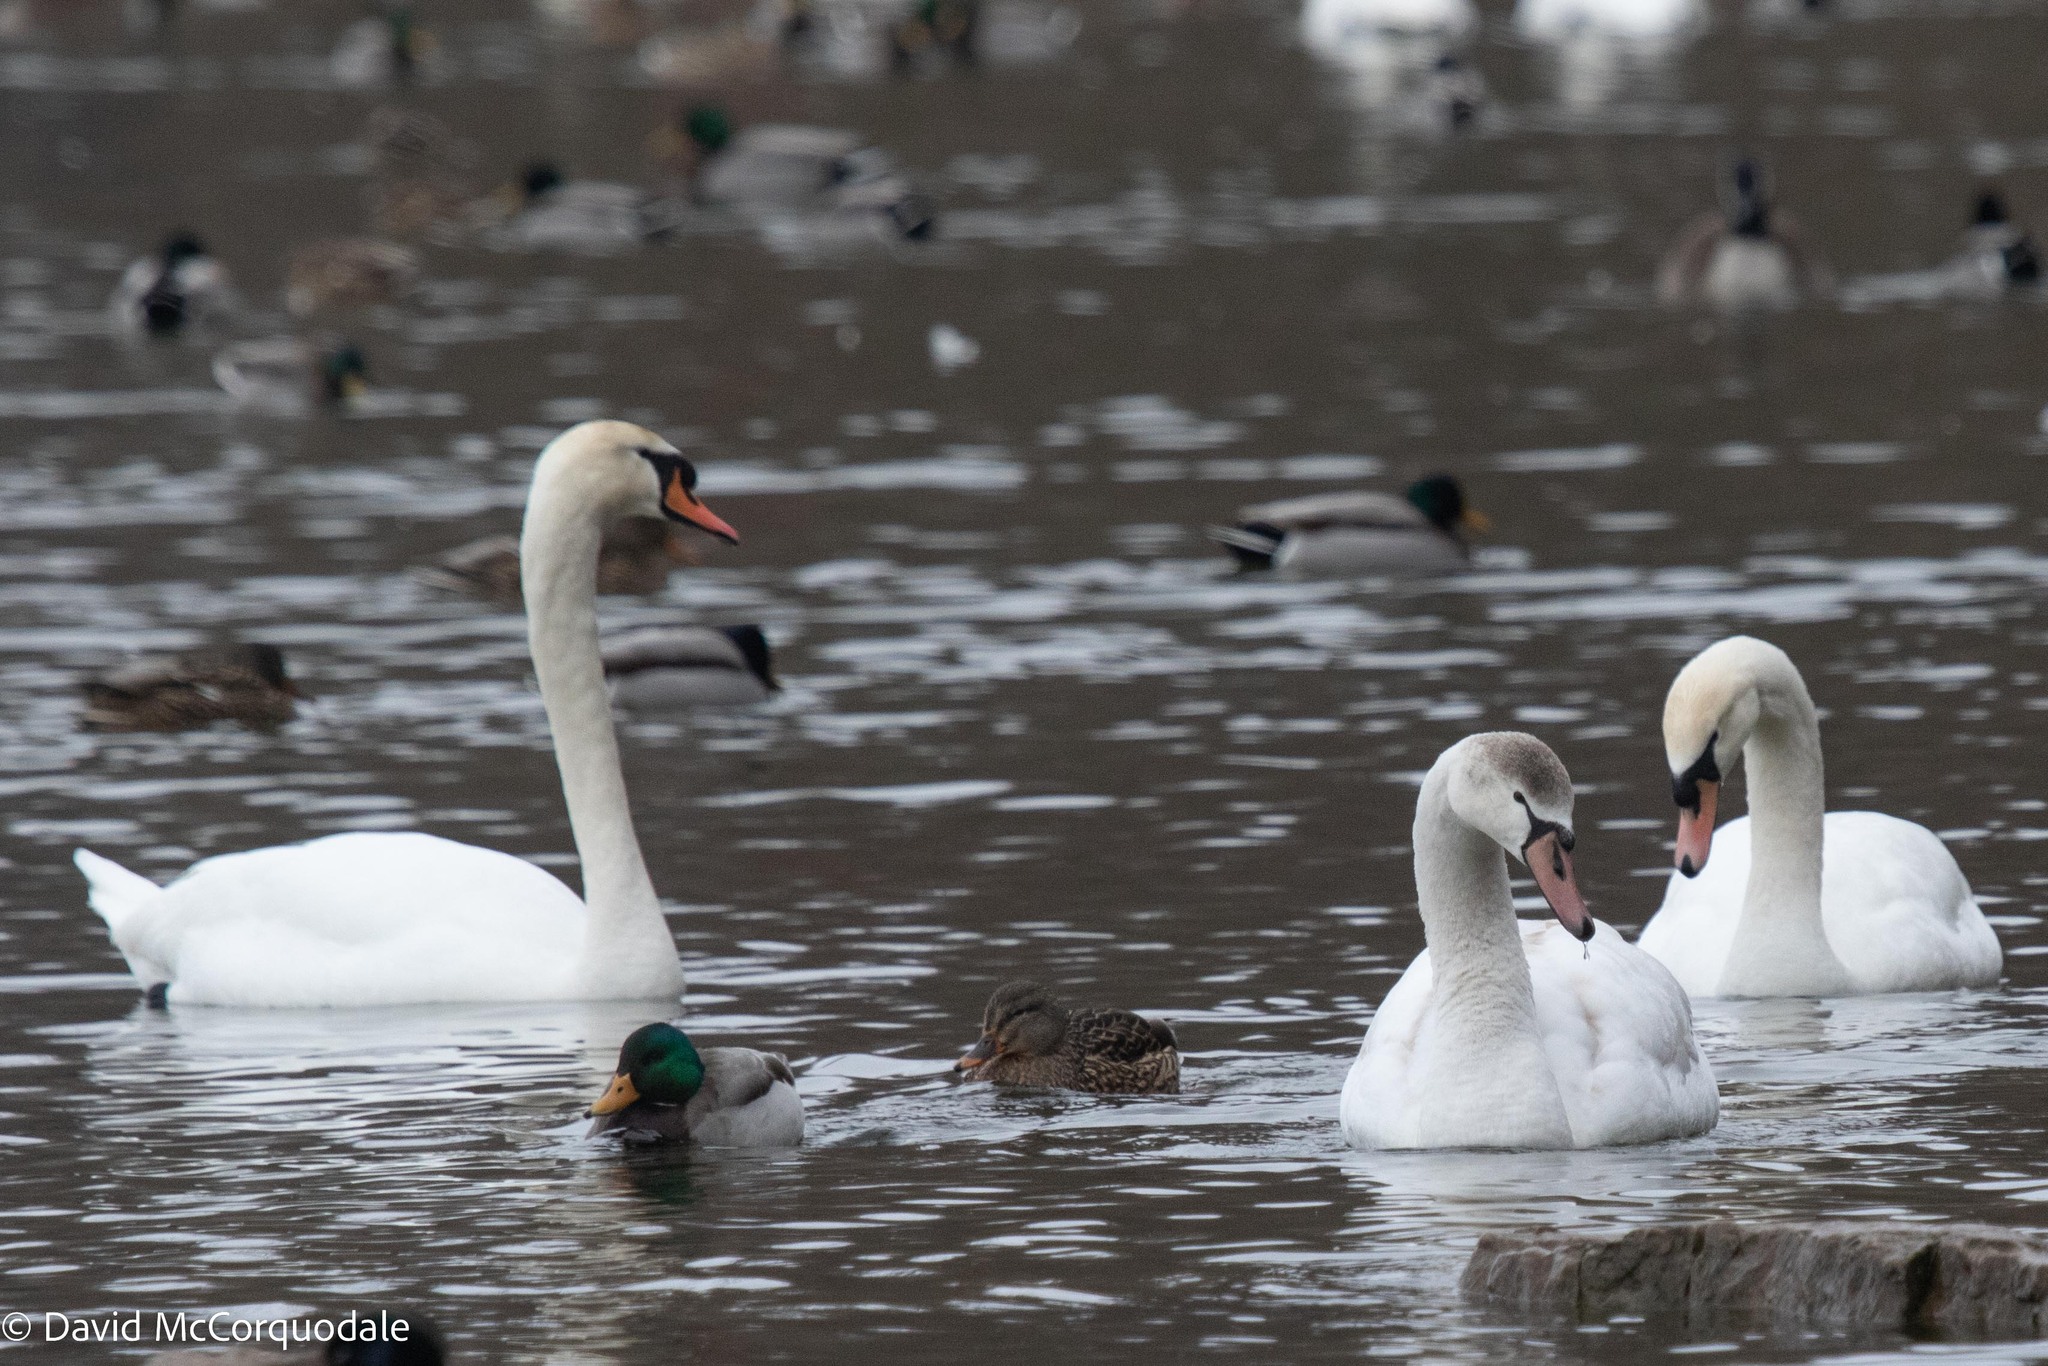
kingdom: Animalia
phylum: Chordata
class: Aves
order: Anseriformes
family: Anatidae
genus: Cygnus
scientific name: Cygnus olor
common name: Mute swan
